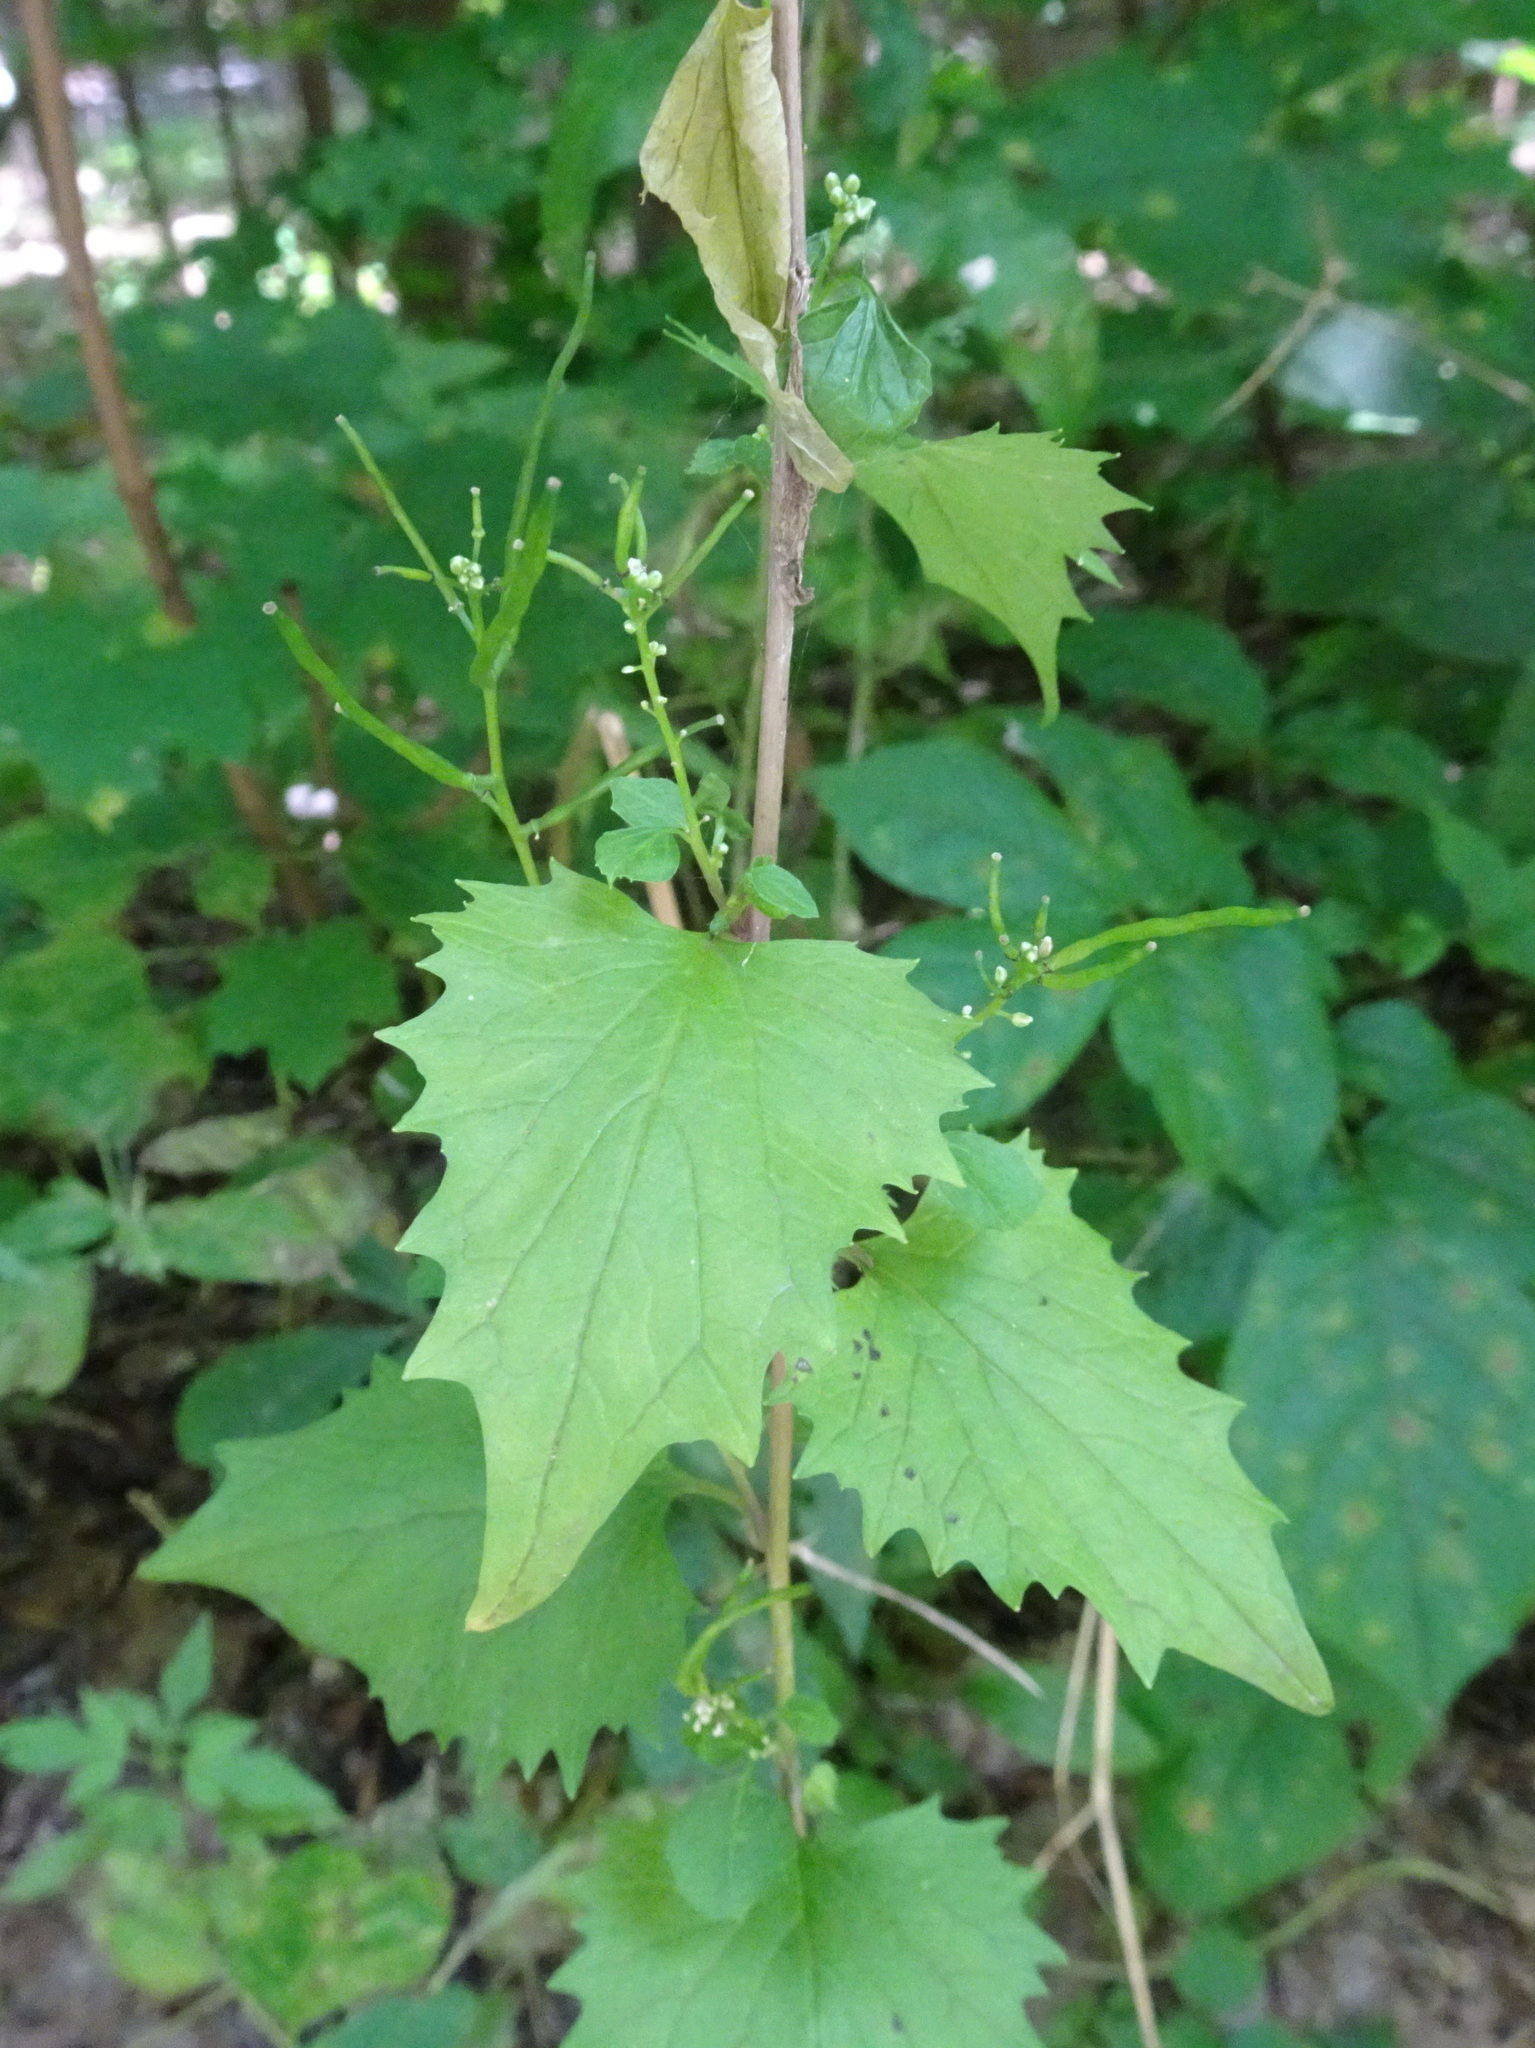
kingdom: Plantae
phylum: Tracheophyta
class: Magnoliopsida
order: Brassicales
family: Brassicaceae
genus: Alliaria
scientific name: Alliaria petiolata
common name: Garlic mustard
